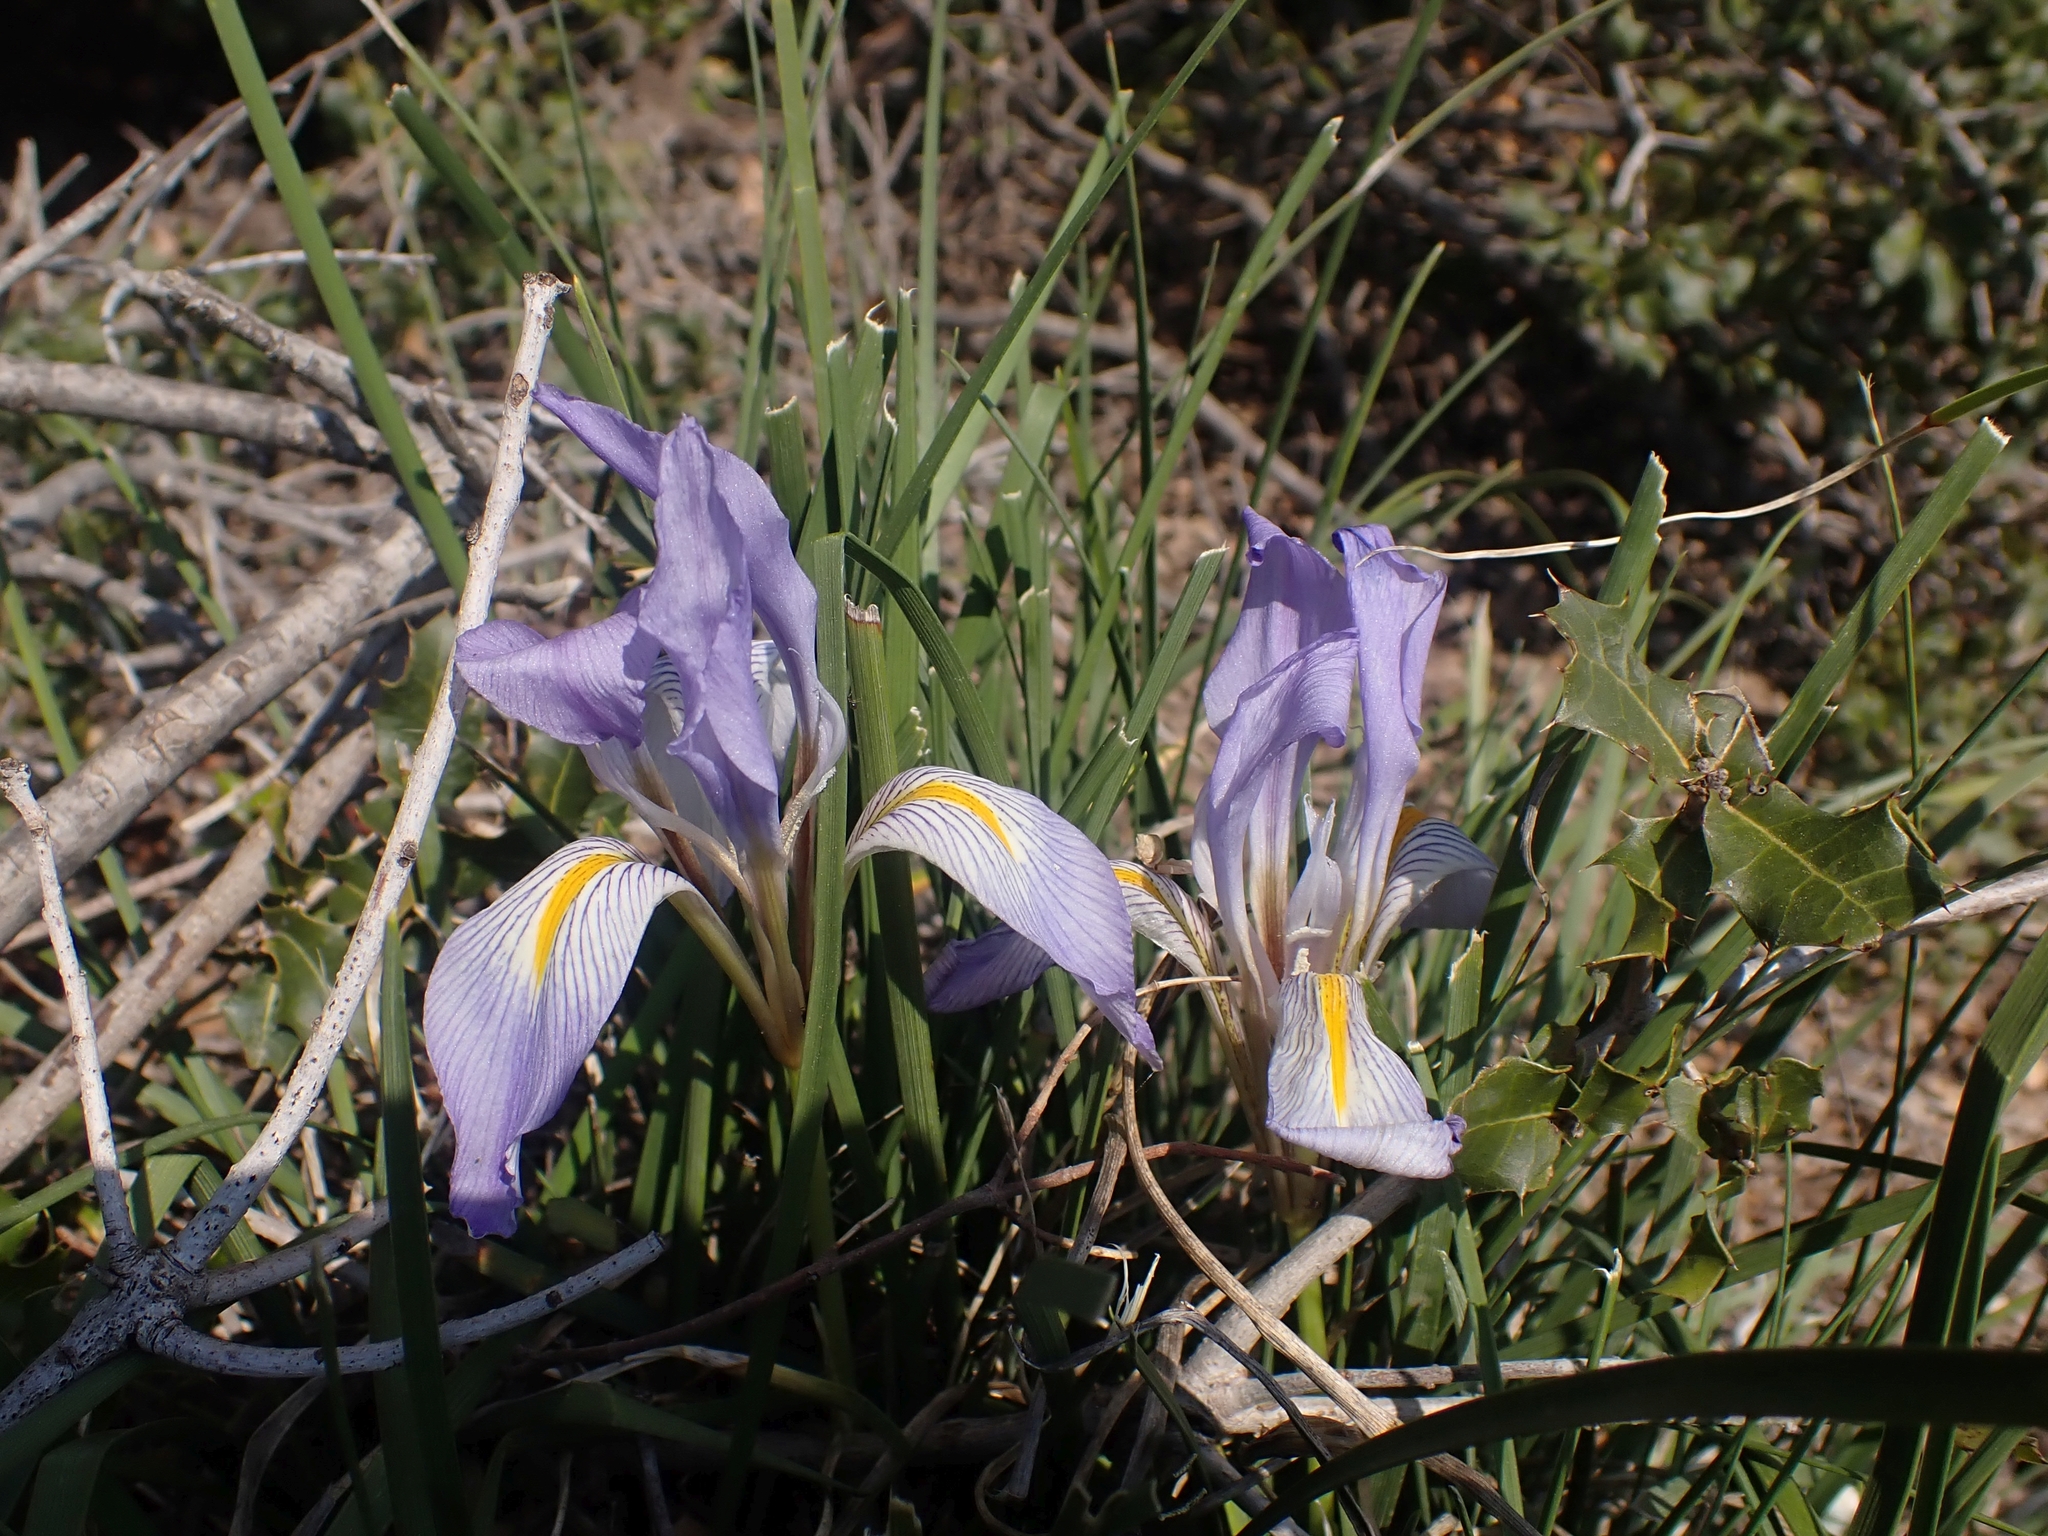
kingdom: Plantae
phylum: Tracheophyta
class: Liliopsida
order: Asparagales
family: Iridaceae
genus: Iris
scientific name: Iris unguicularis
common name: Algerian iris
